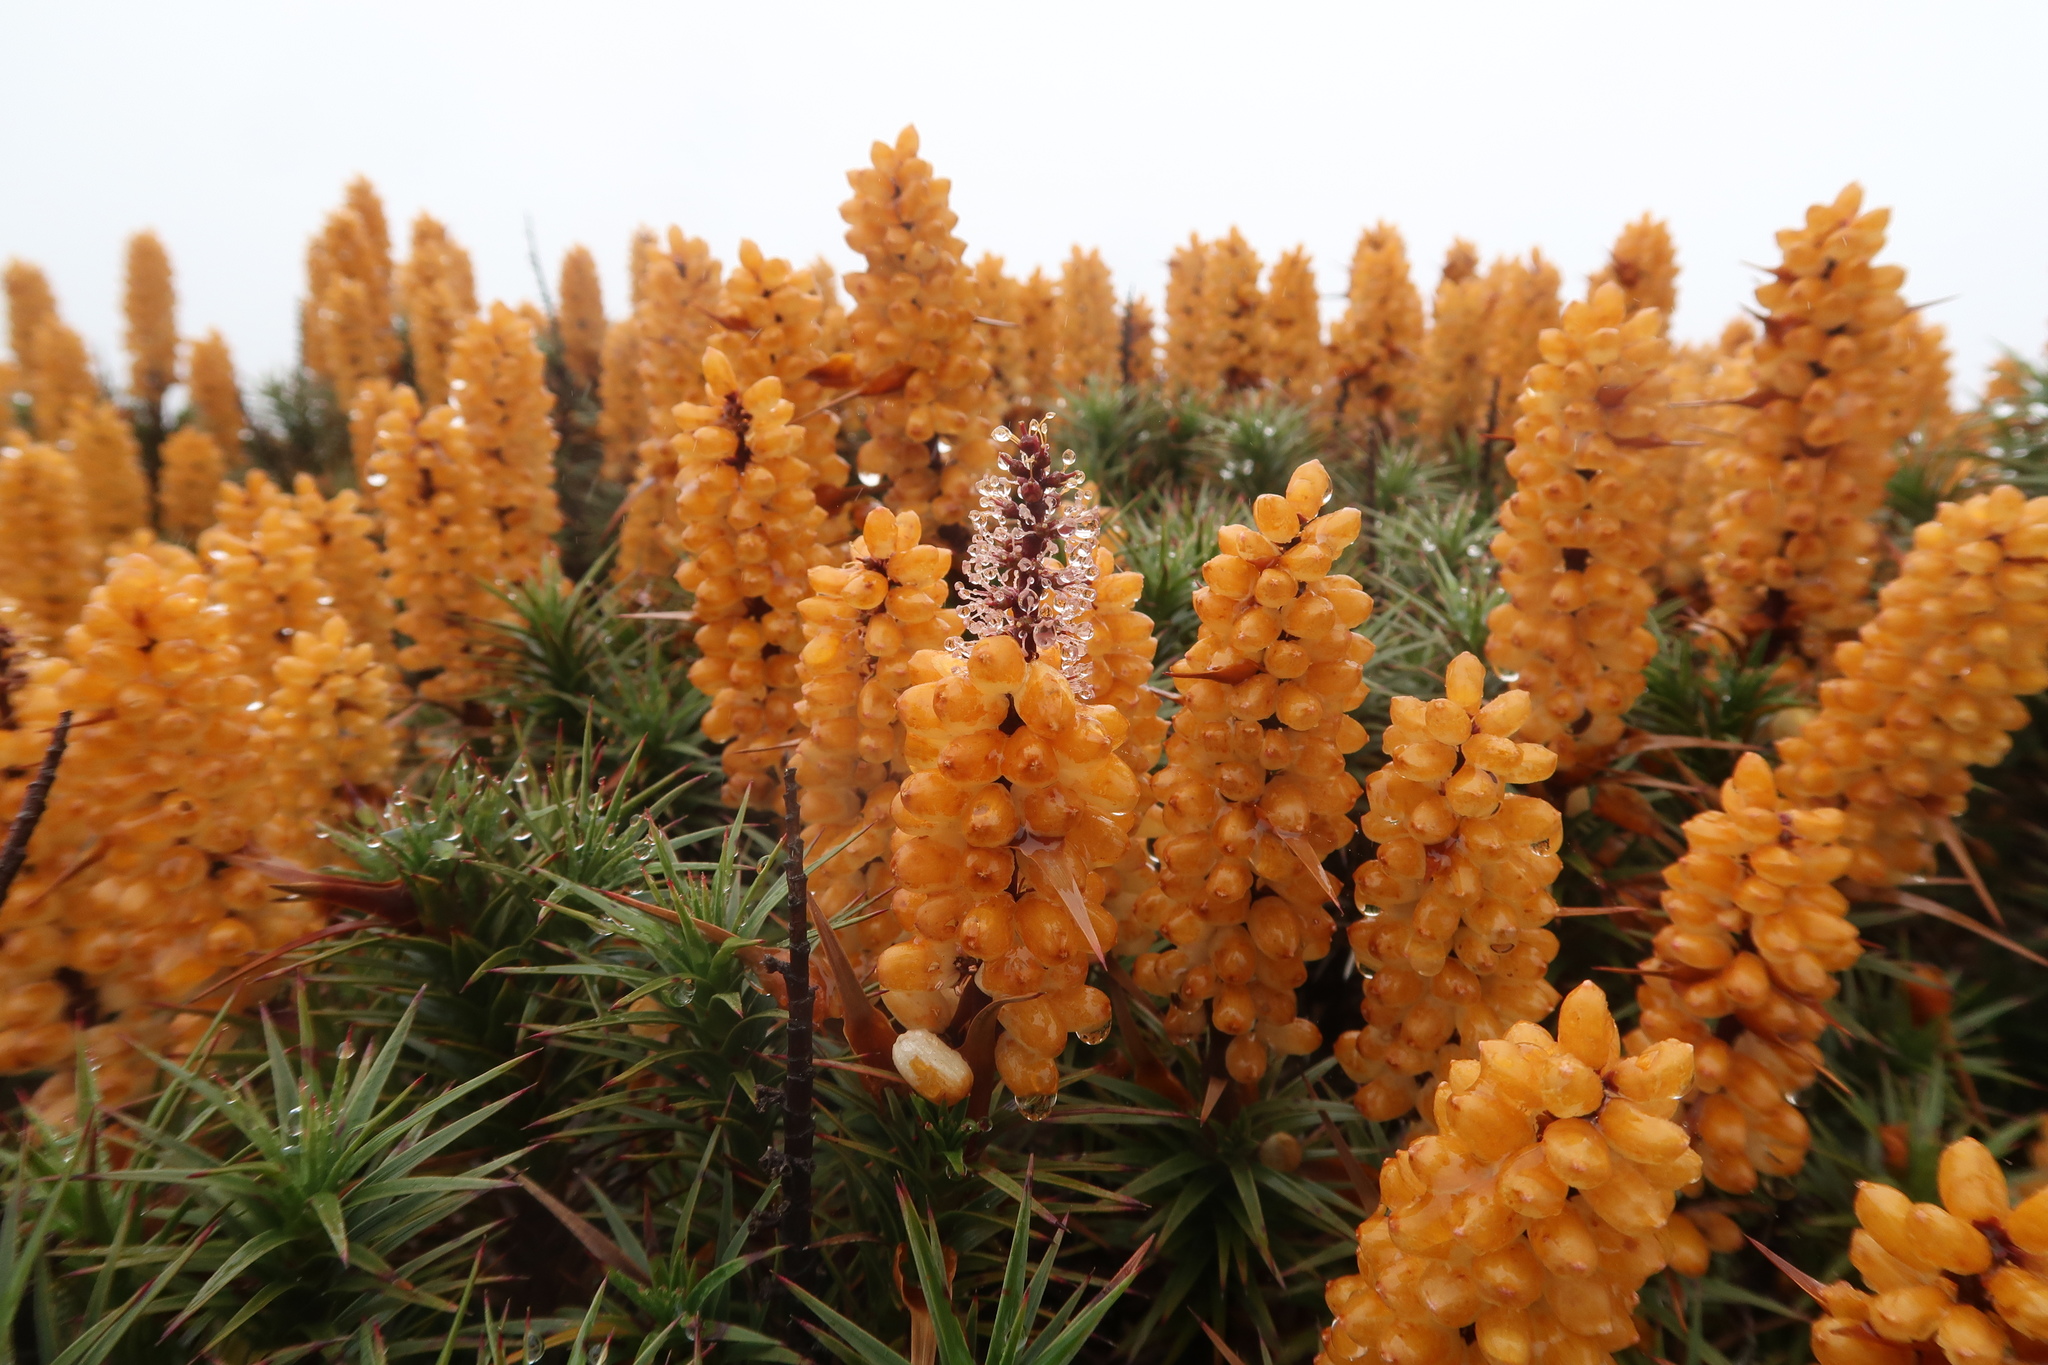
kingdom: Plantae
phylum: Tracheophyta
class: Magnoliopsida
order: Ericales
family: Ericaceae
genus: Dracophyllum
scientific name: Dracophyllum persistentifolium
